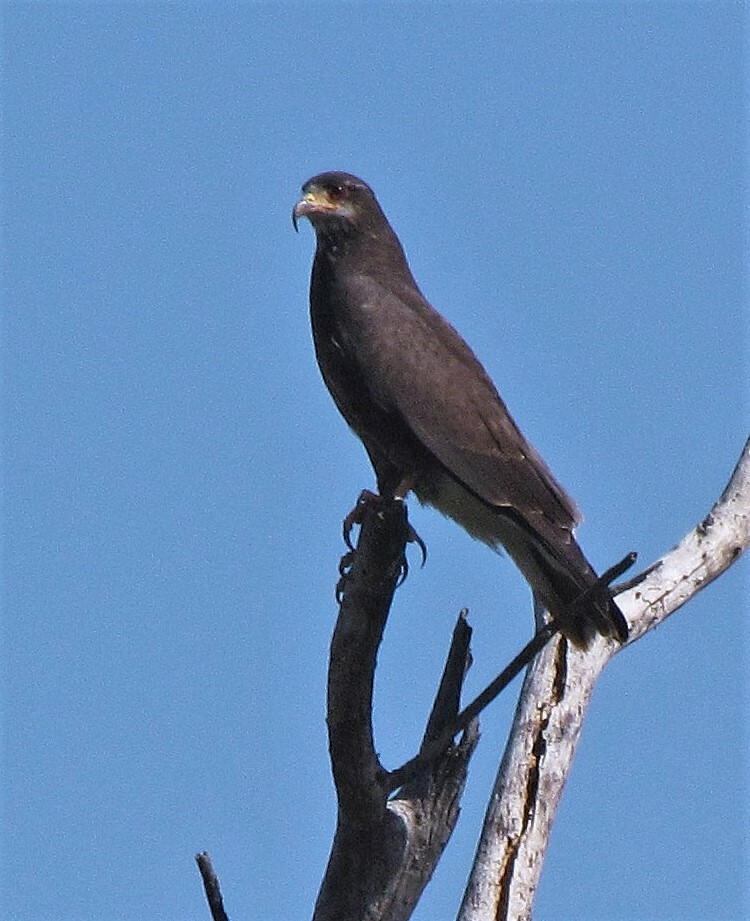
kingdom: Animalia
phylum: Chordata
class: Aves
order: Accipitriformes
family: Accipitridae
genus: Rostrhamus
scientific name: Rostrhamus sociabilis
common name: Snail kite
